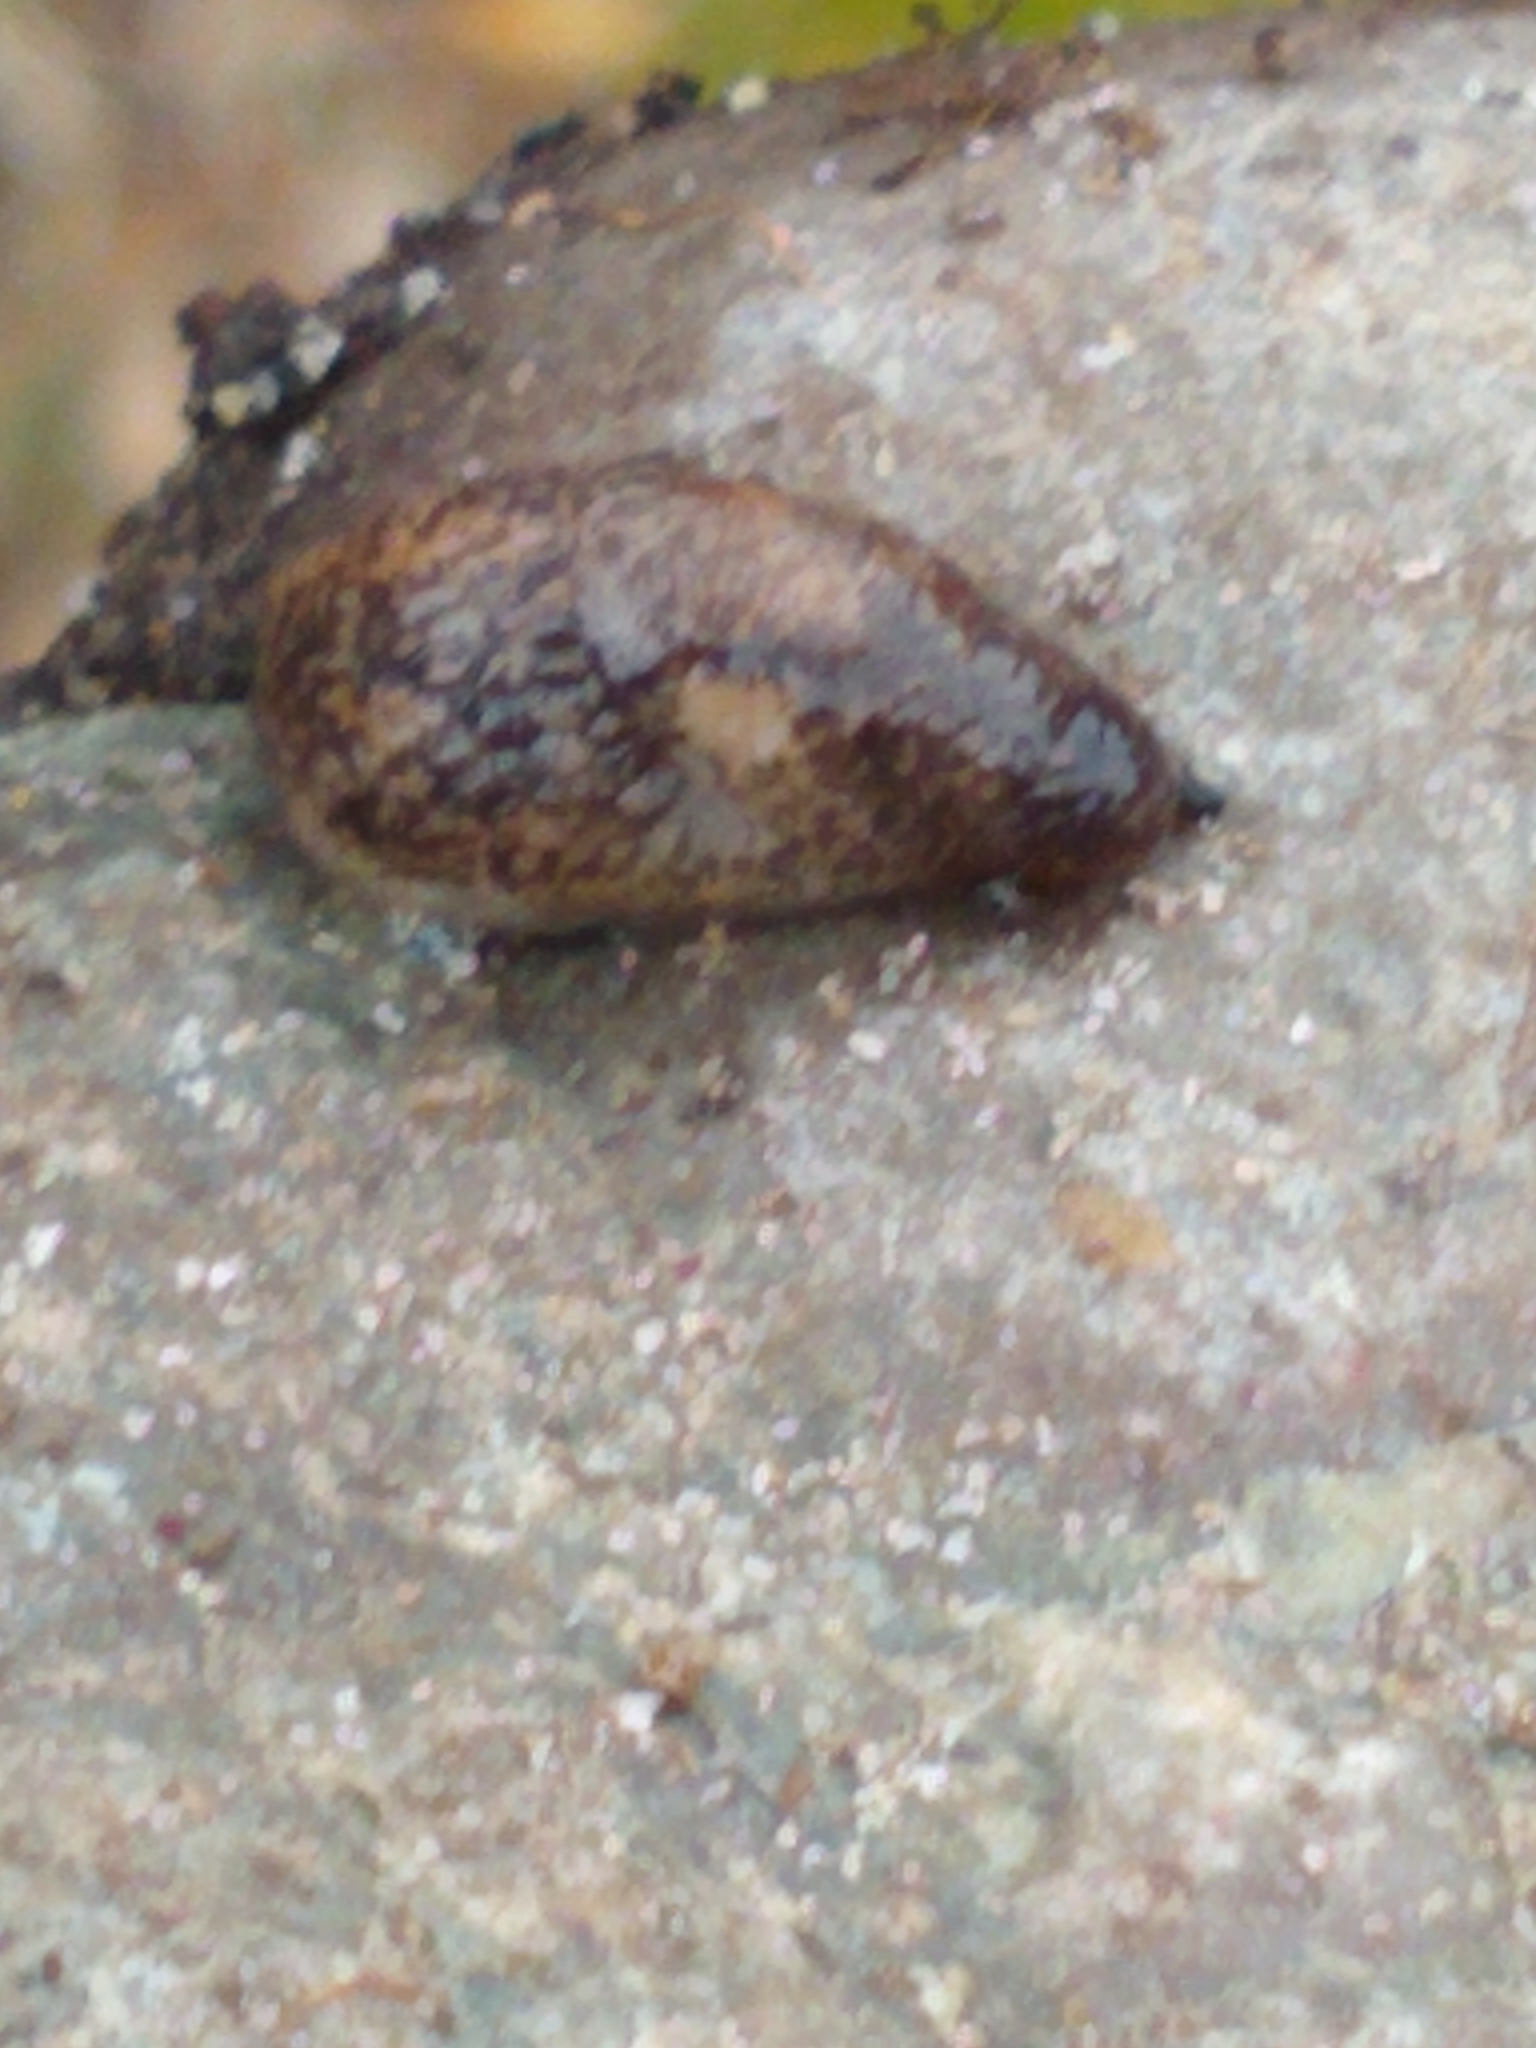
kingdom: Animalia
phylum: Mollusca
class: Gastropoda
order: Stylommatophora
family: Agriolimacidae
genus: Deroceras
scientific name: Deroceras reticulatum
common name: Gray field slug
